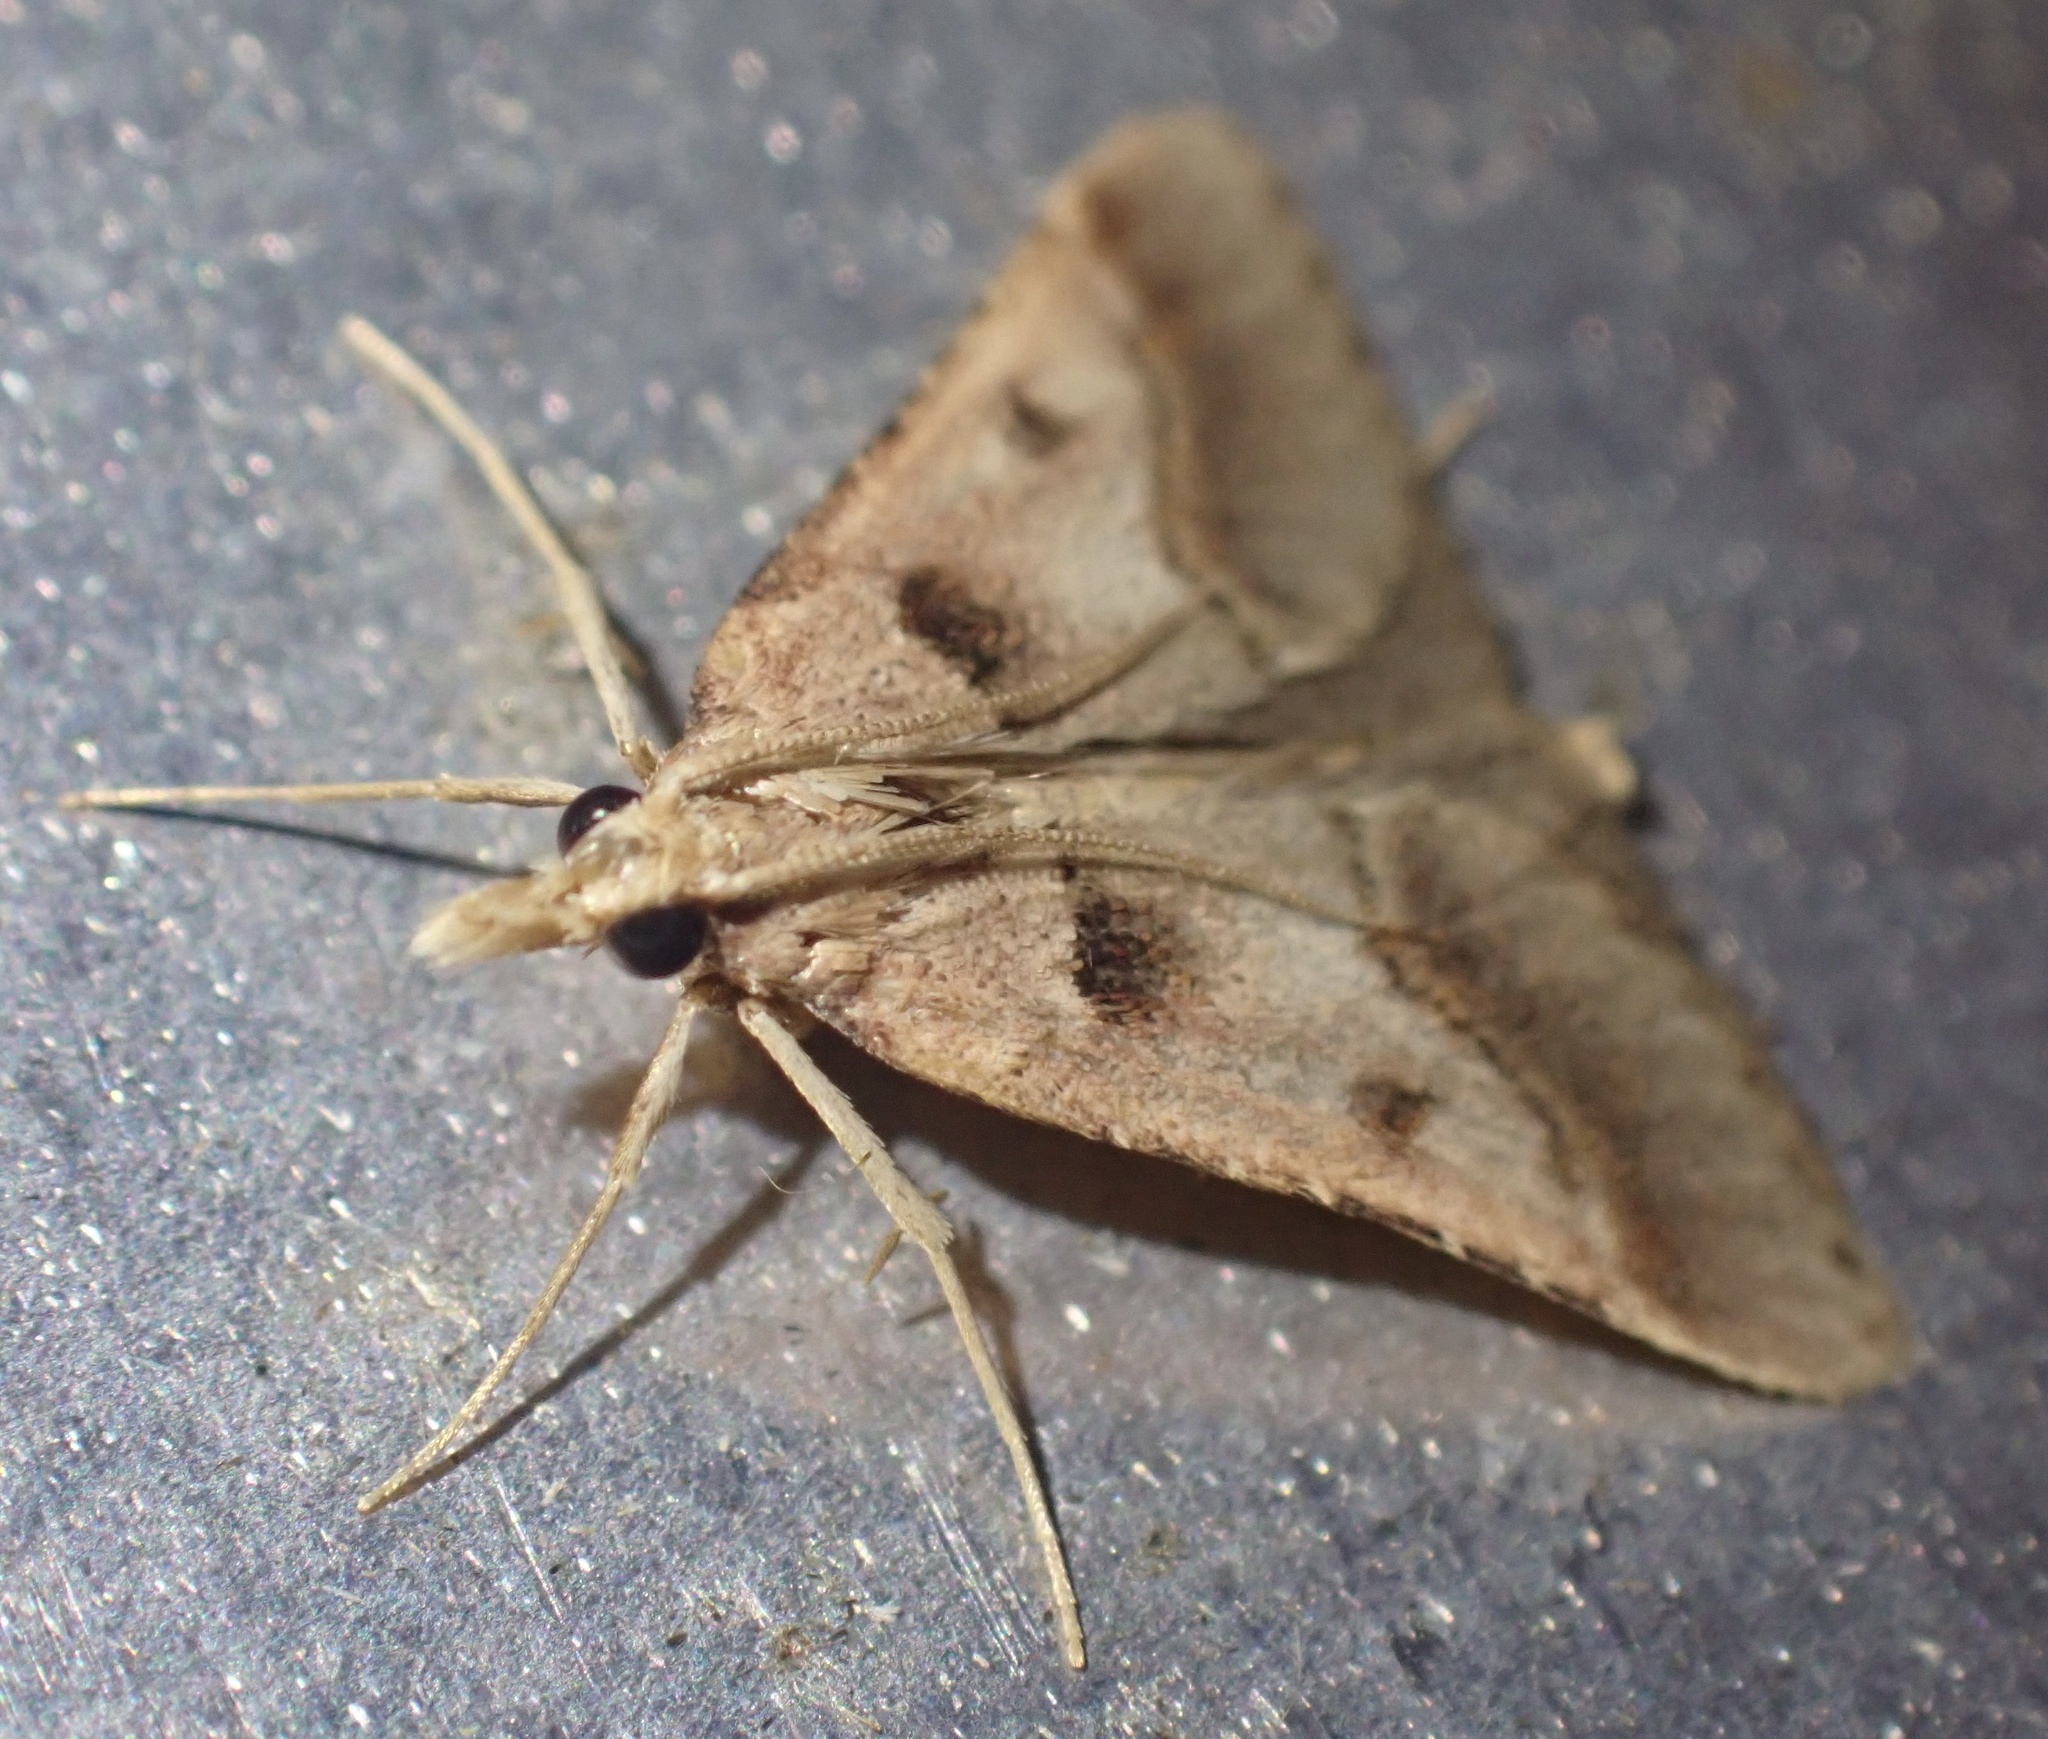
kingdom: Animalia
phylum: Arthropoda
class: Insecta
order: Lepidoptera
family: Pyralidae
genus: Stemmatophora
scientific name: Stemmatophora brunnealis
